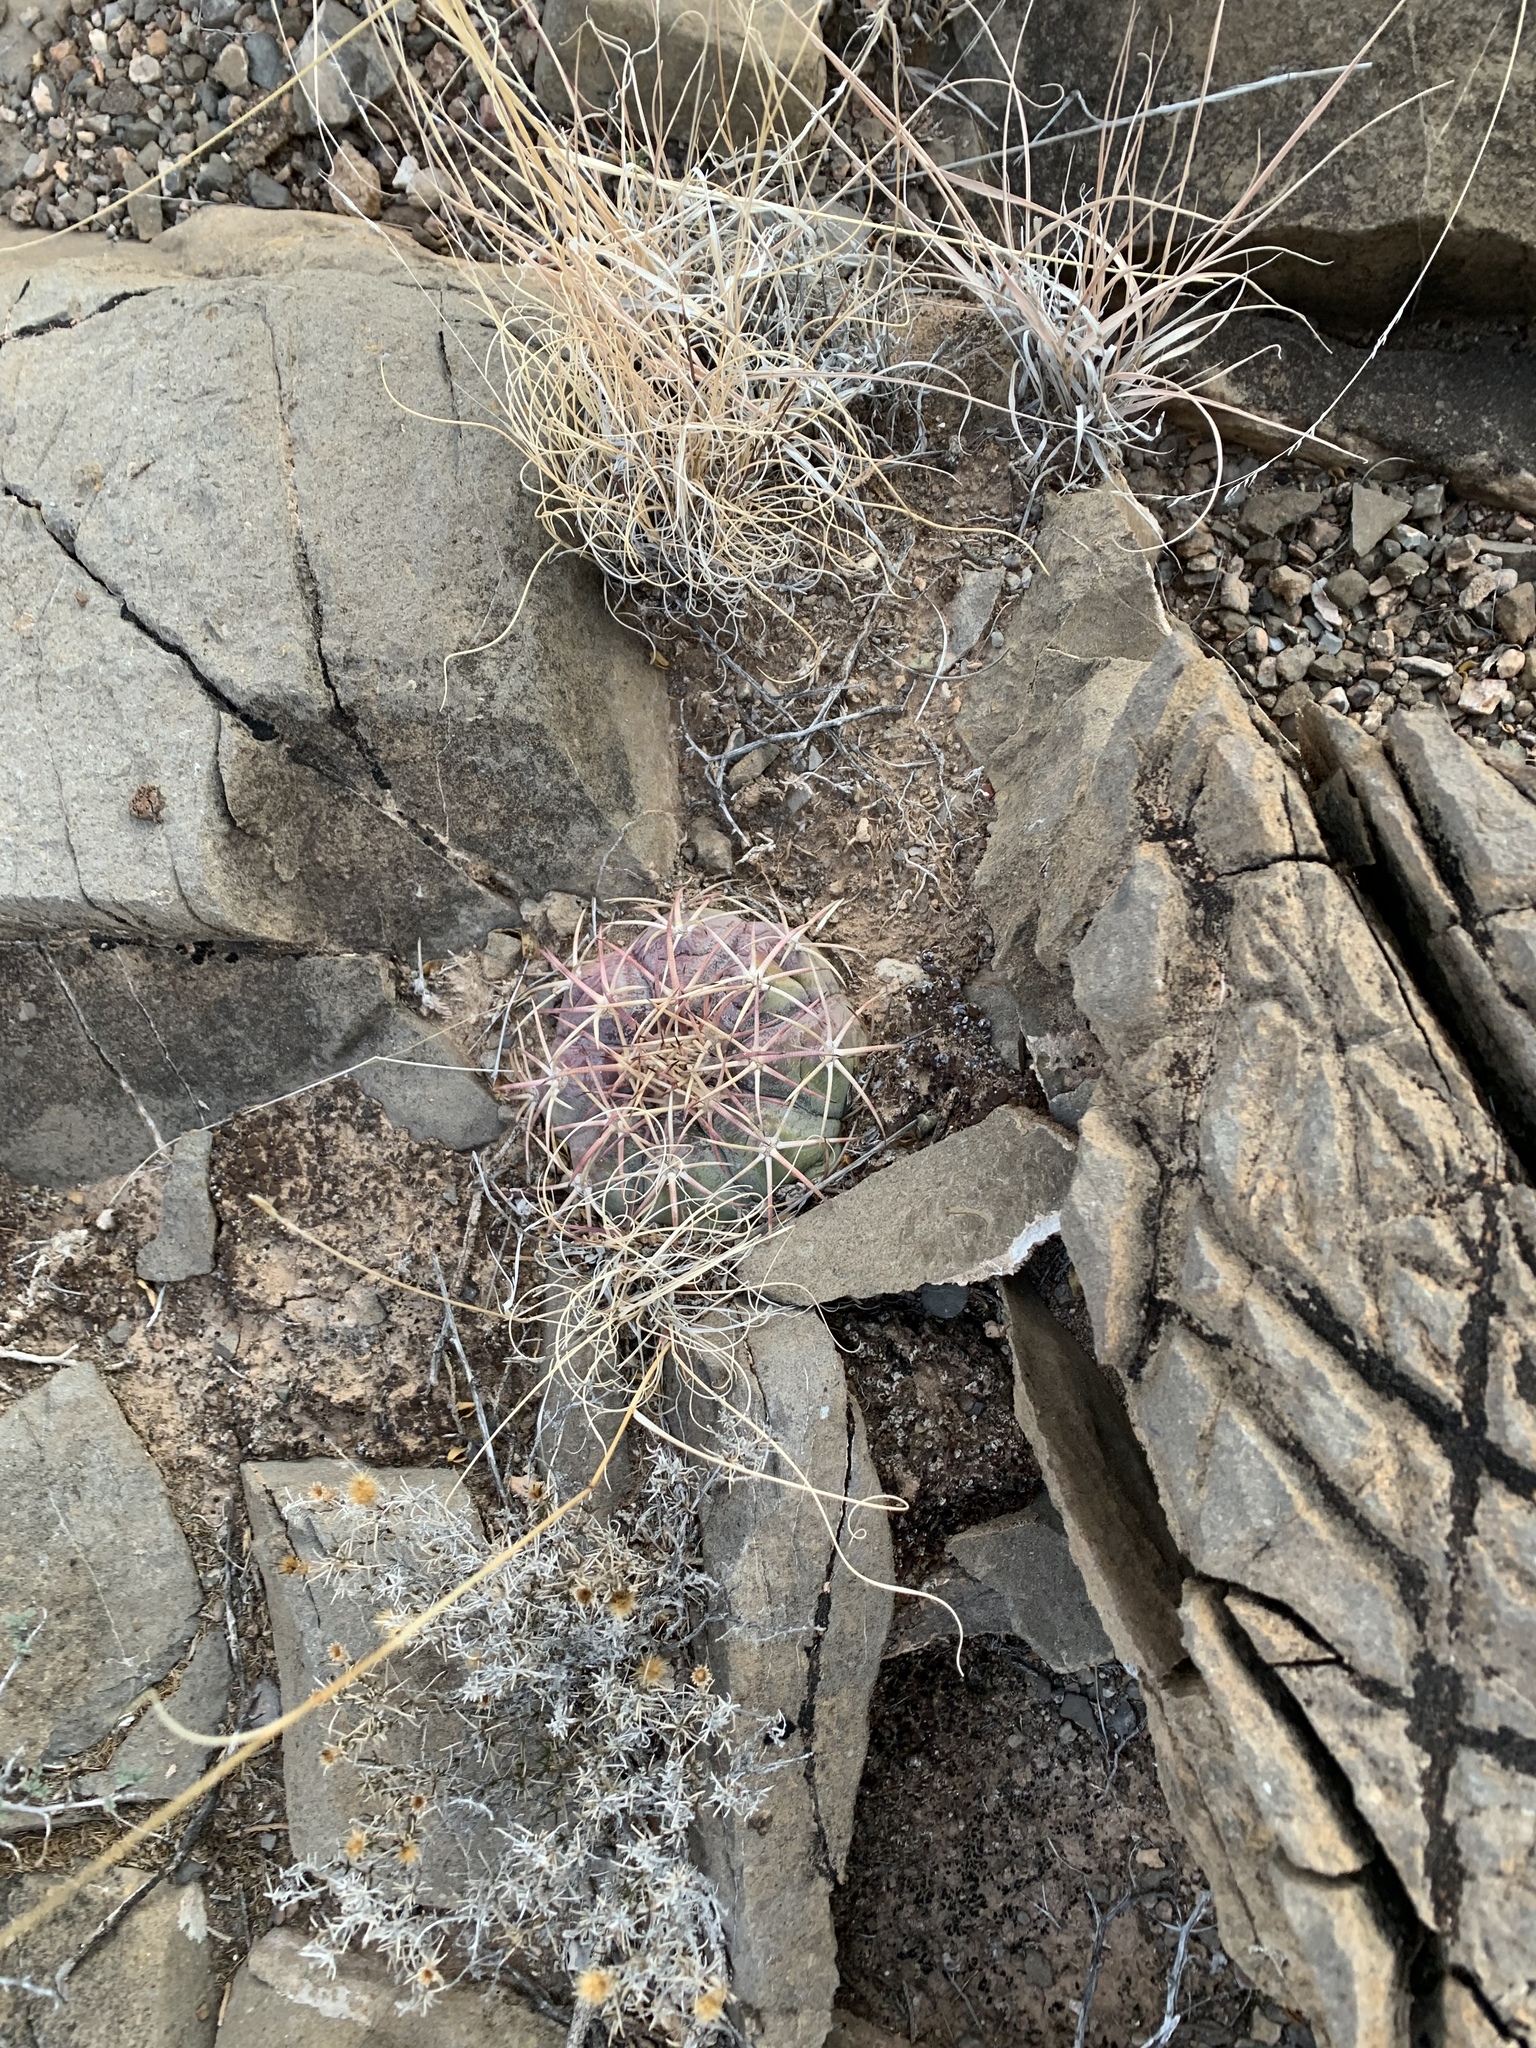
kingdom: Plantae
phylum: Tracheophyta
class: Magnoliopsida
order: Caryophyllales
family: Cactaceae
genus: Echinocactus
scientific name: Echinocactus horizonthalonius
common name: Devilshead
